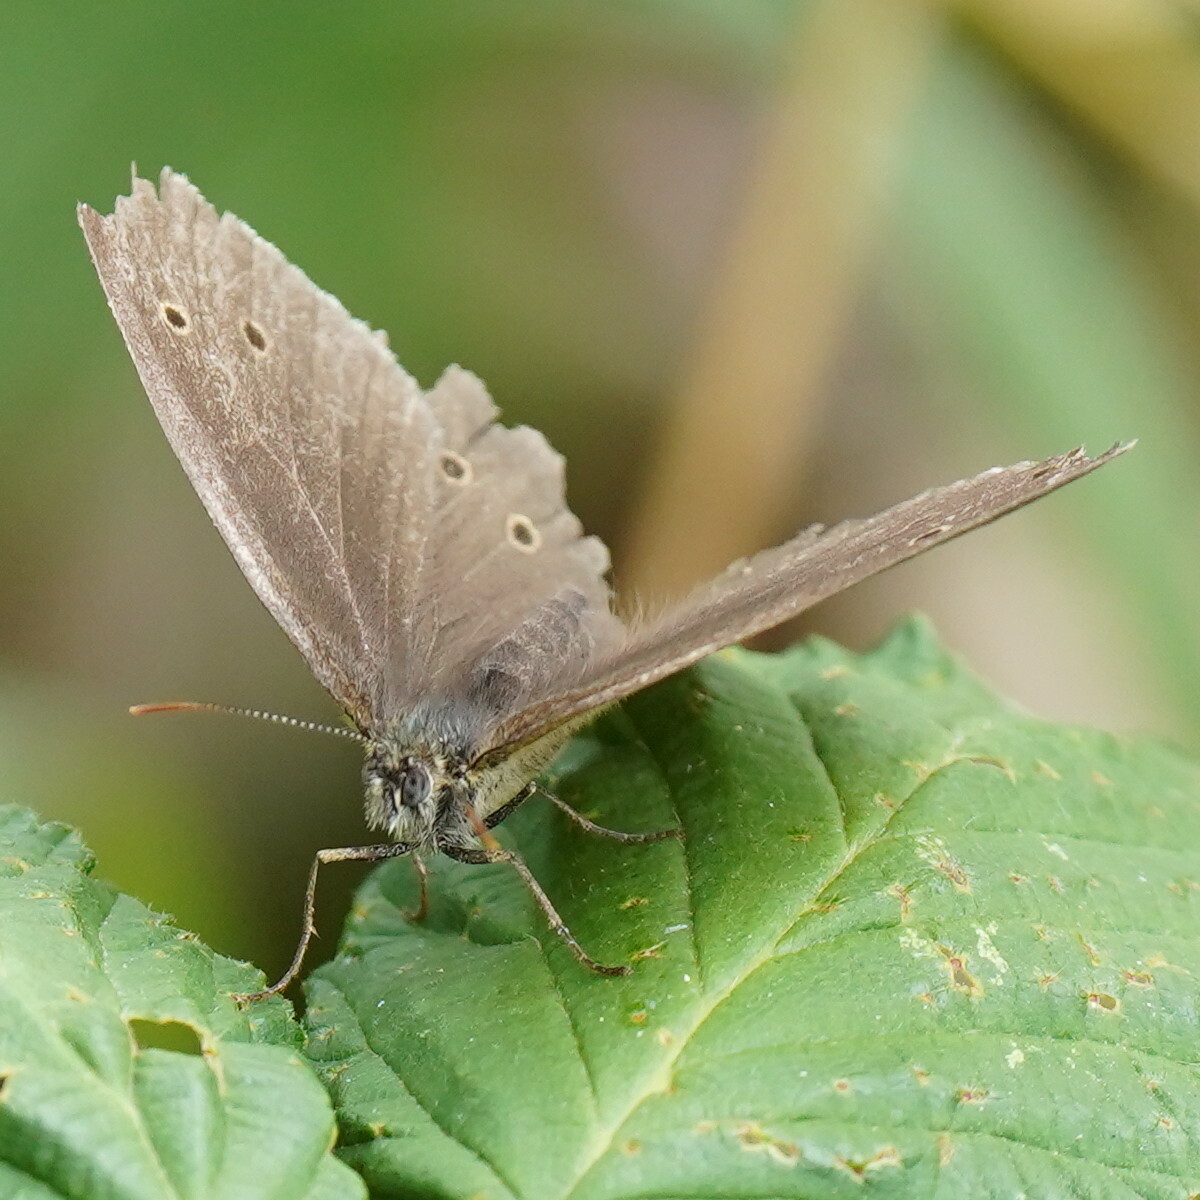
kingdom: Animalia
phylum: Arthropoda
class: Insecta
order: Lepidoptera
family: Nymphalidae
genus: Aphantopus
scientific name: Aphantopus hyperantus
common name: Ringlet
